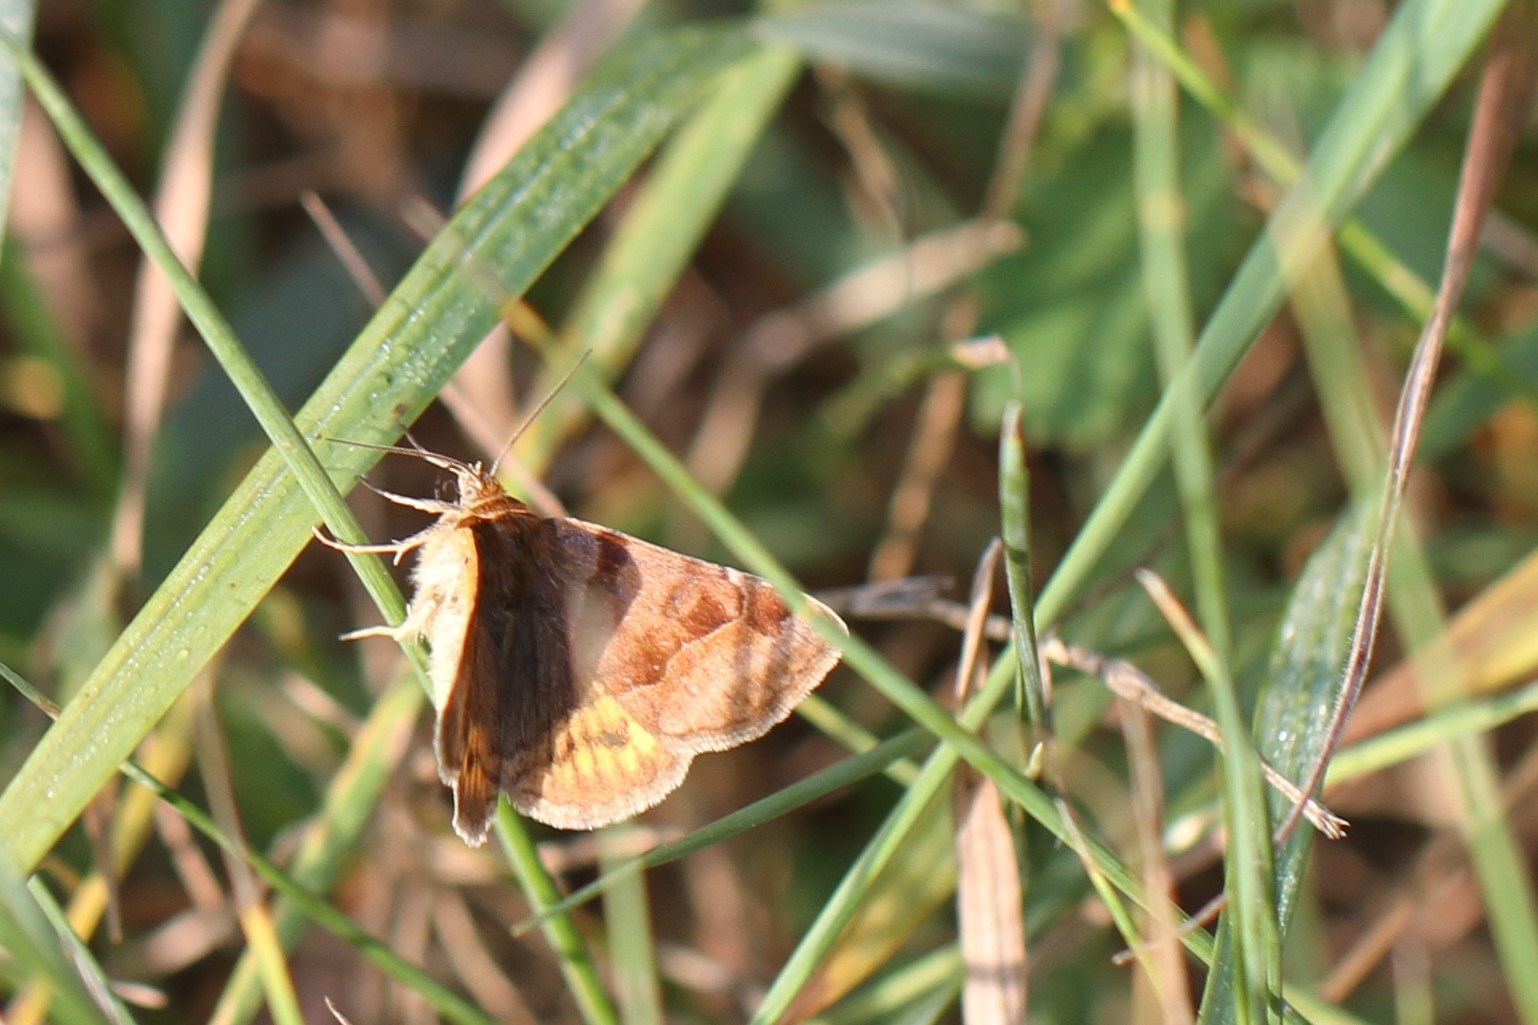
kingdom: Animalia
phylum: Arthropoda
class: Insecta
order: Lepidoptera
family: Erebidae
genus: Euclidia
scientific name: Euclidia glyphica
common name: Burnet companion
